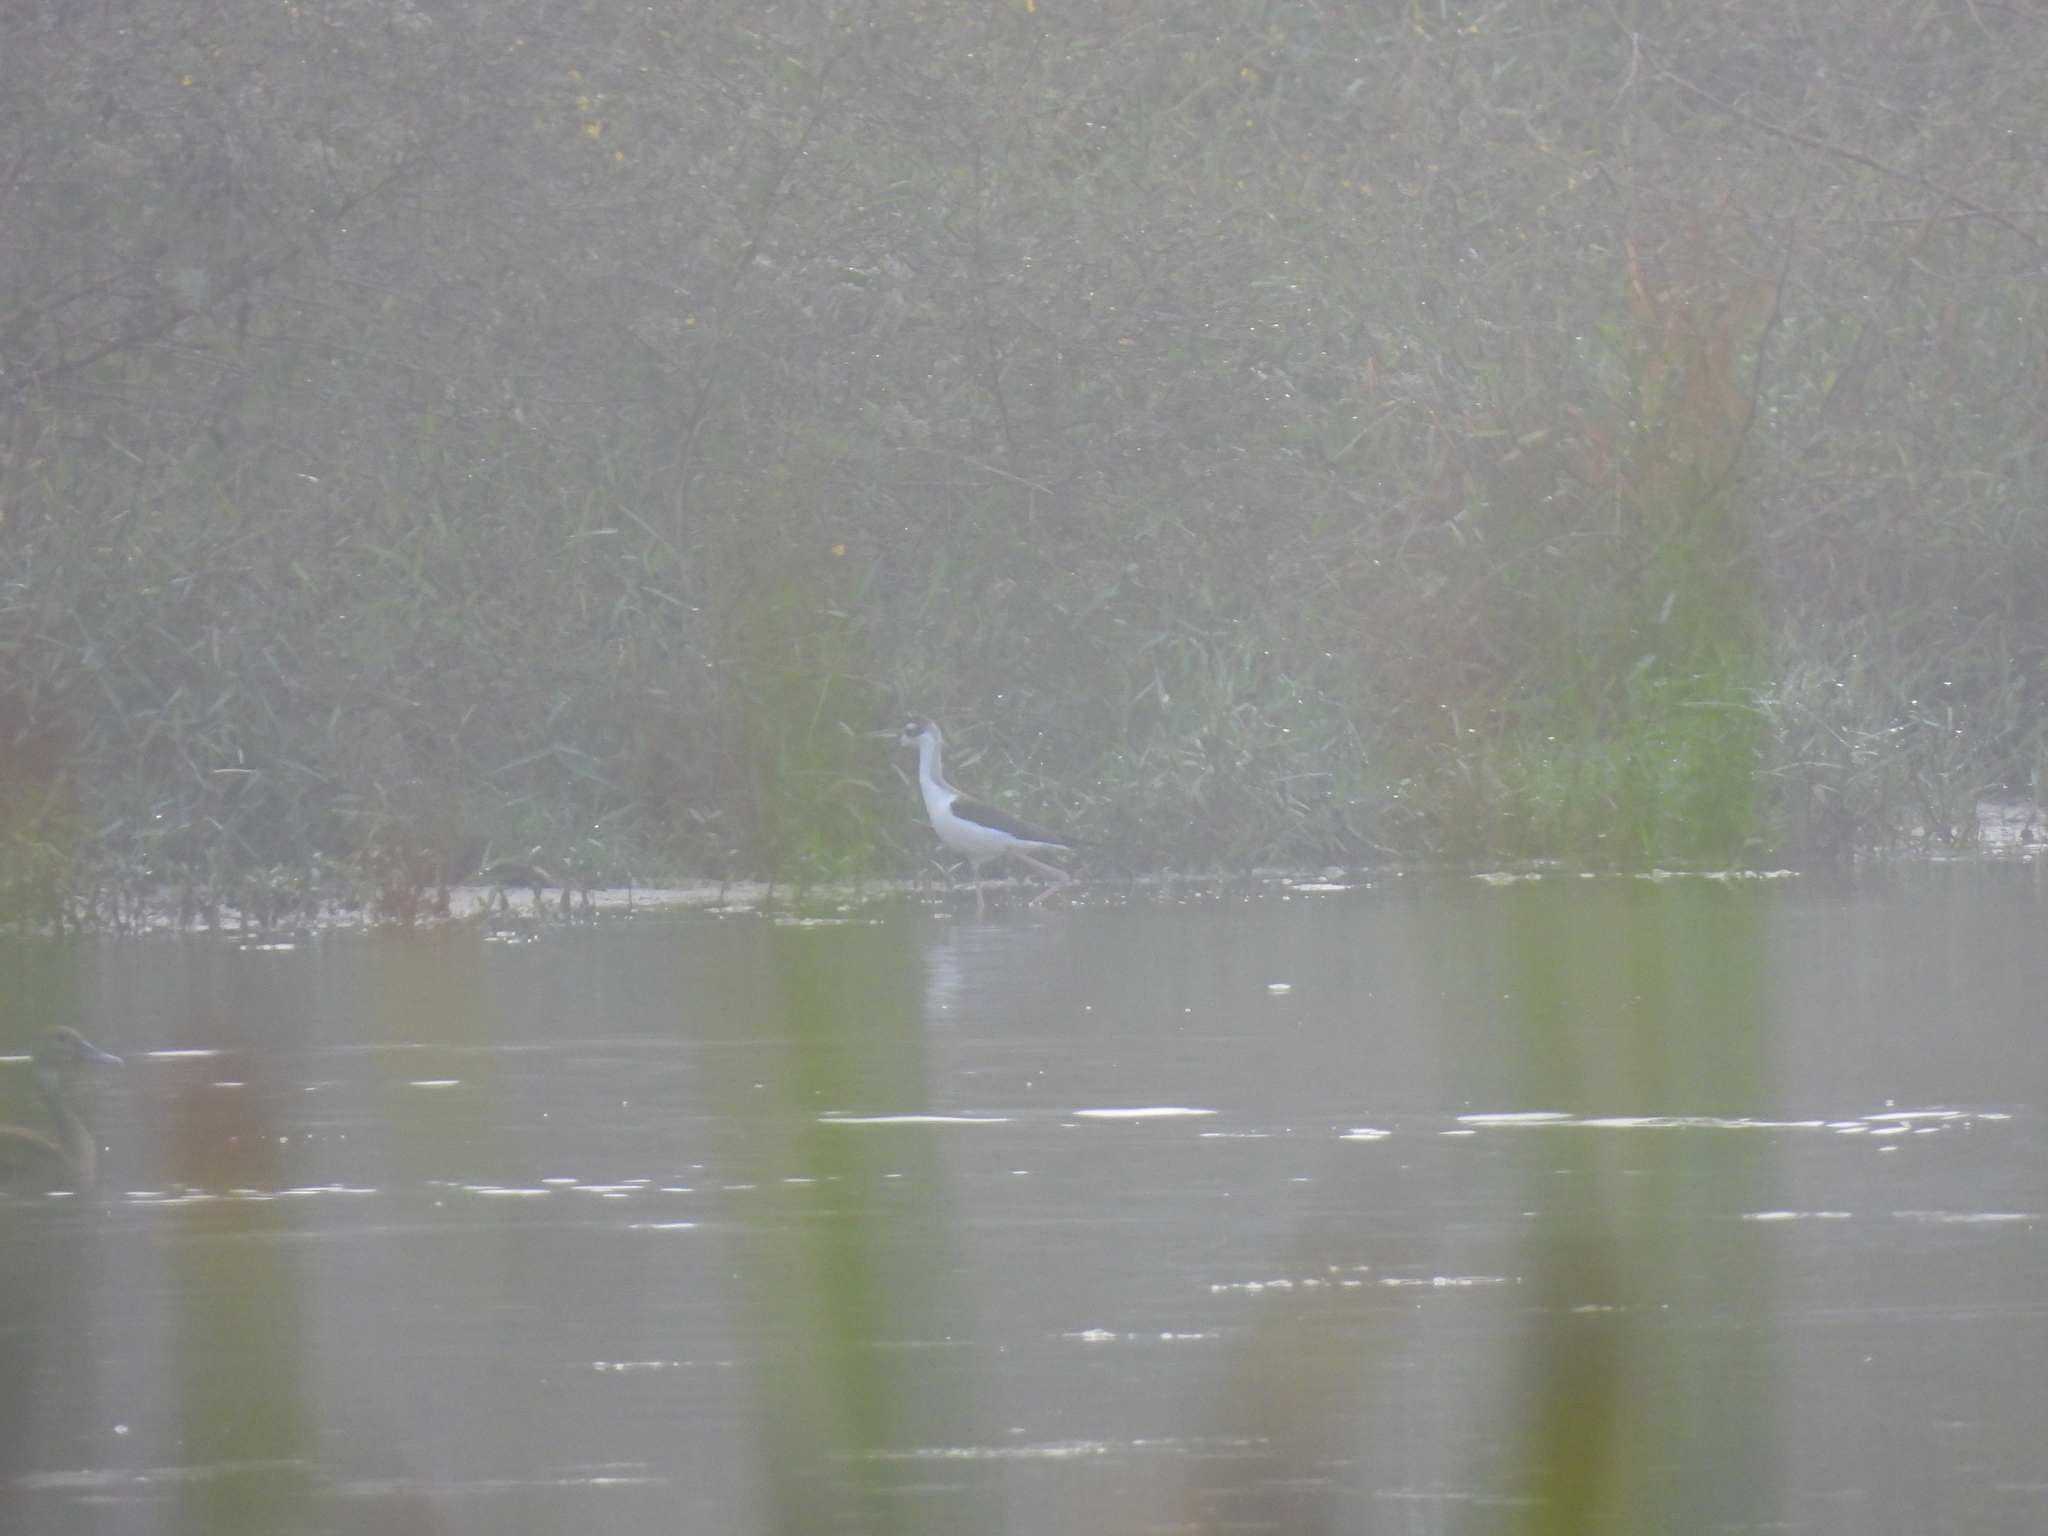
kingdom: Animalia
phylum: Chordata
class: Aves
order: Charadriiformes
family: Recurvirostridae
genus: Himantopus
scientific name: Himantopus mexicanus
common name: Black-necked stilt
